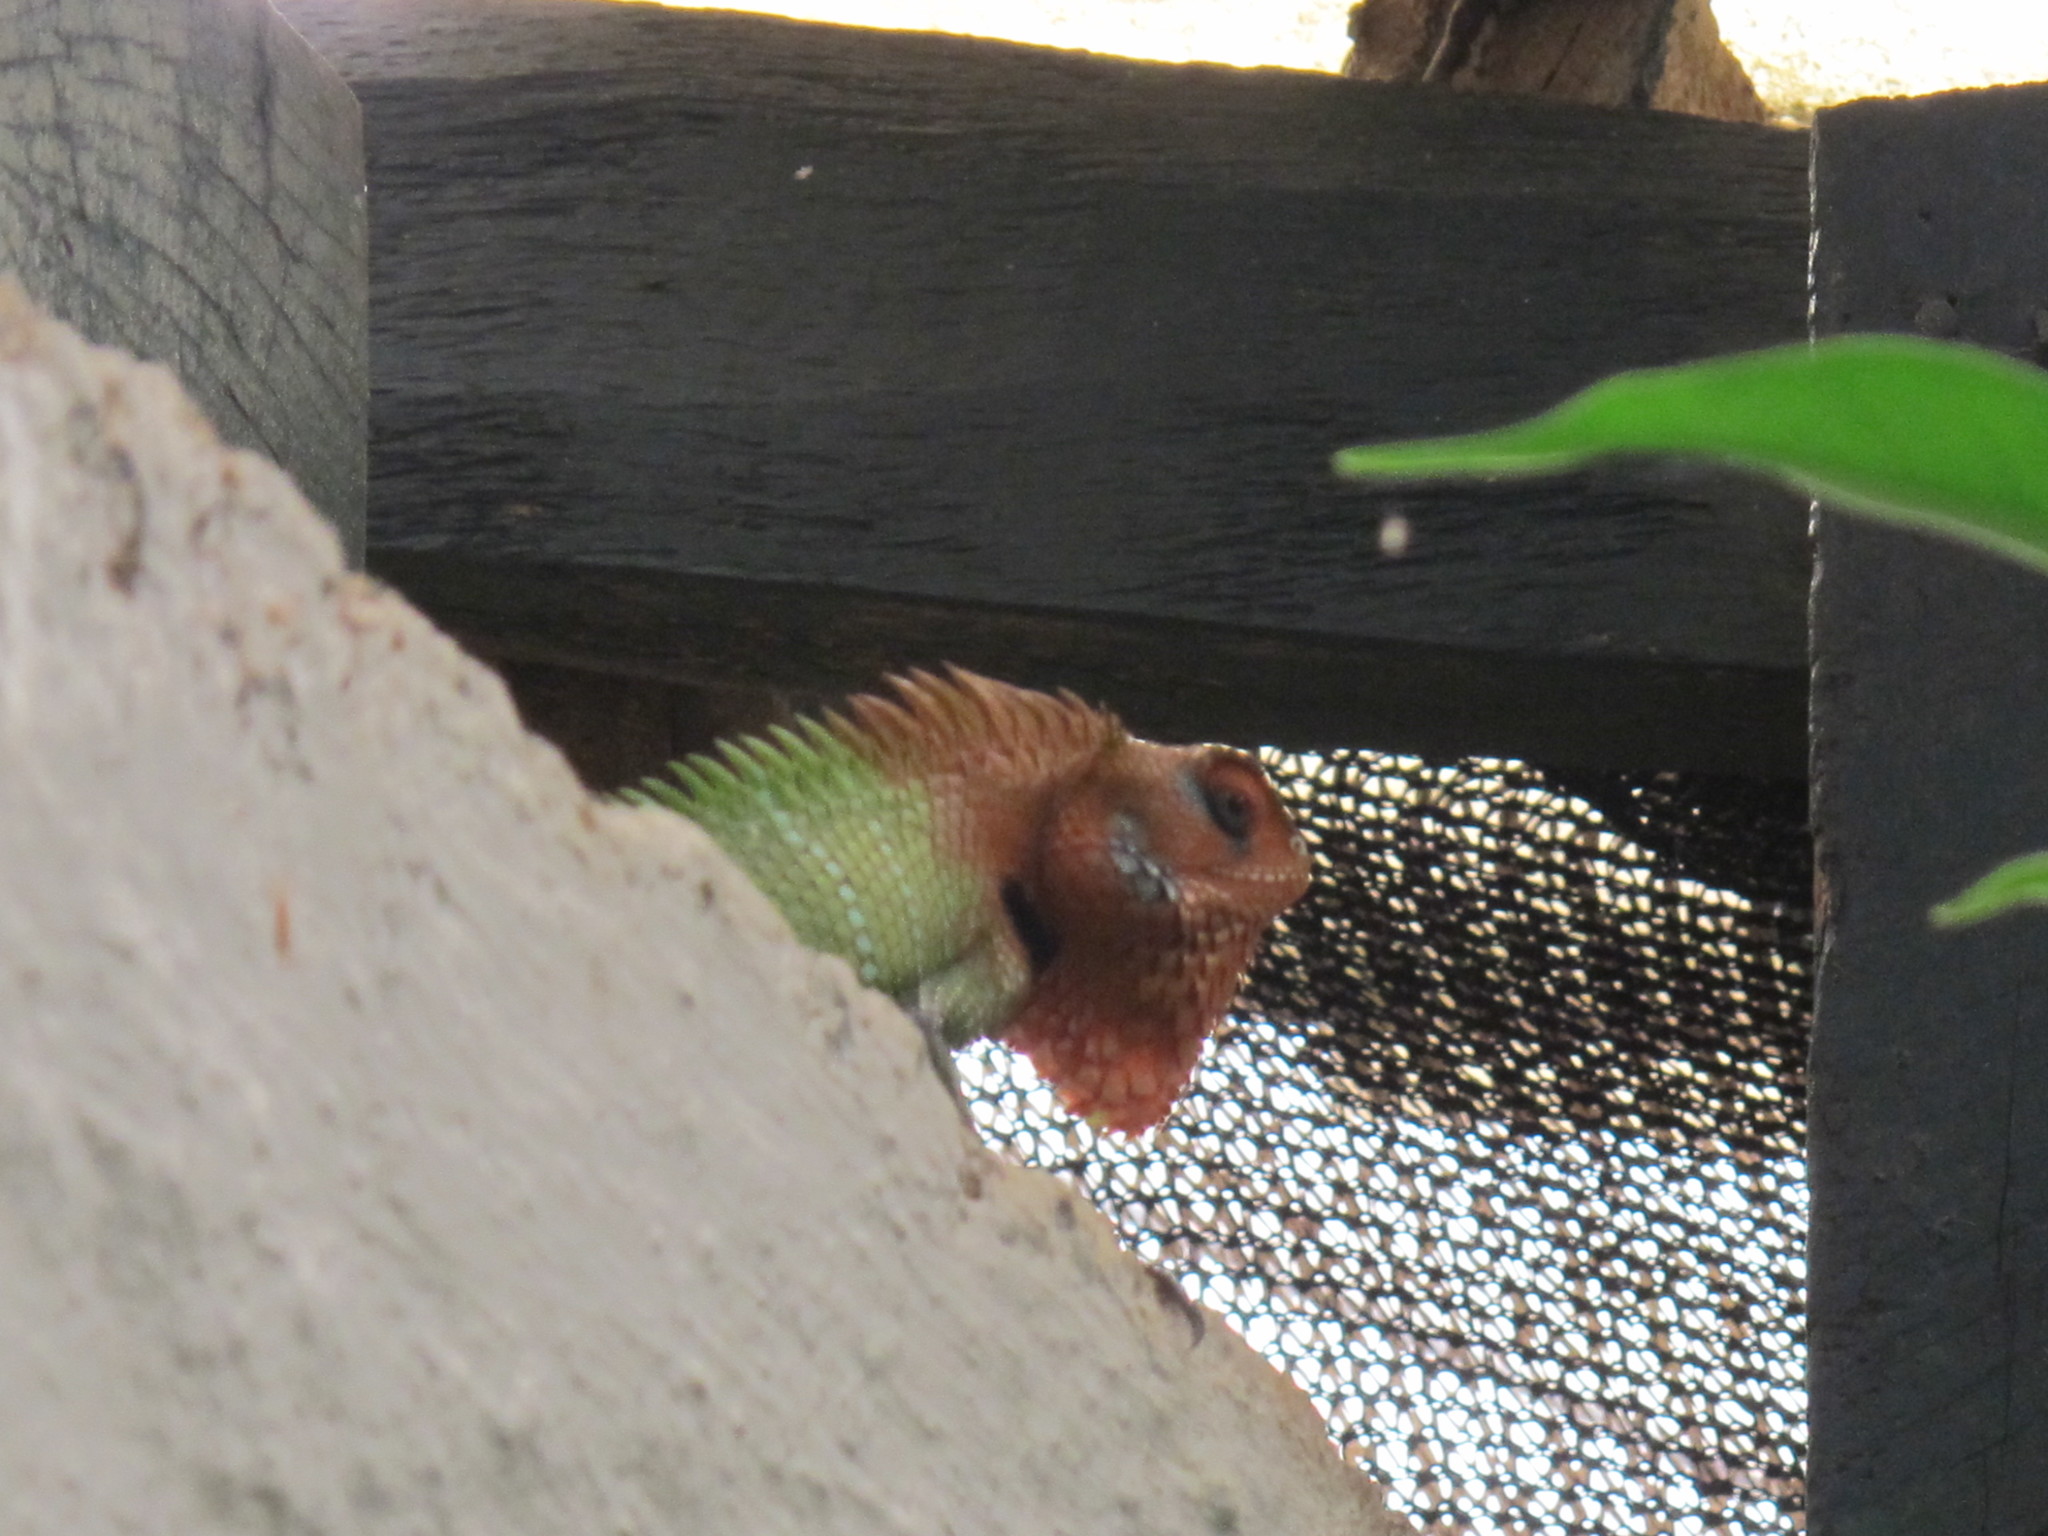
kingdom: Animalia
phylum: Chordata
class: Squamata
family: Agamidae
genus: Calotes
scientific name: Calotes calotes
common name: Common green forest lizard
